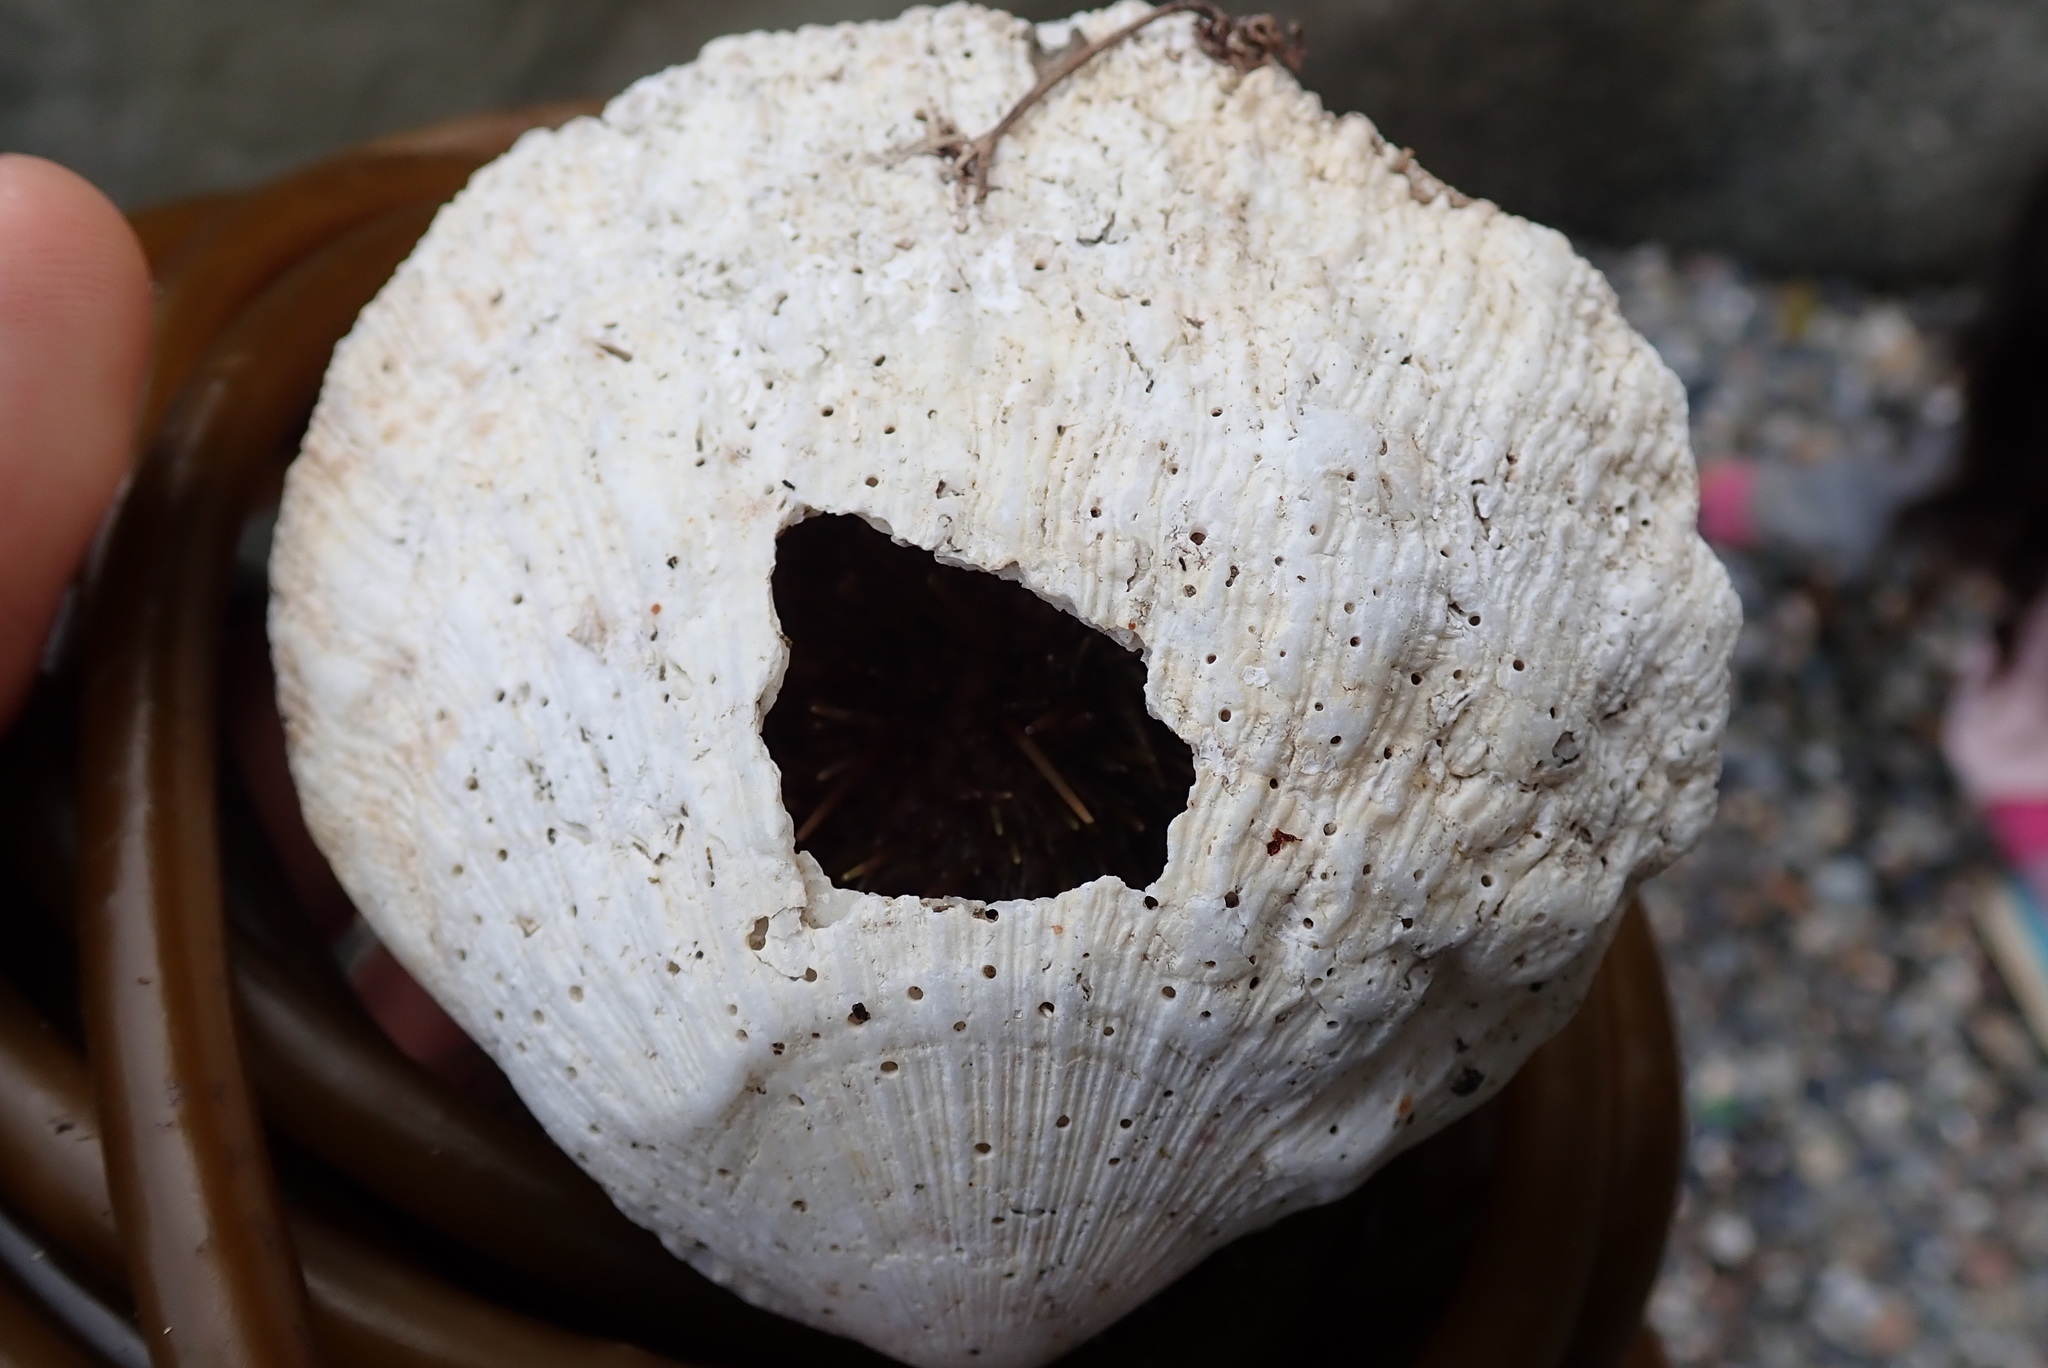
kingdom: Animalia
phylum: Mollusca
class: Bivalvia
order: Pectinida
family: Pectinidae
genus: Crassadoma
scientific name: Crassadoma gigantea
